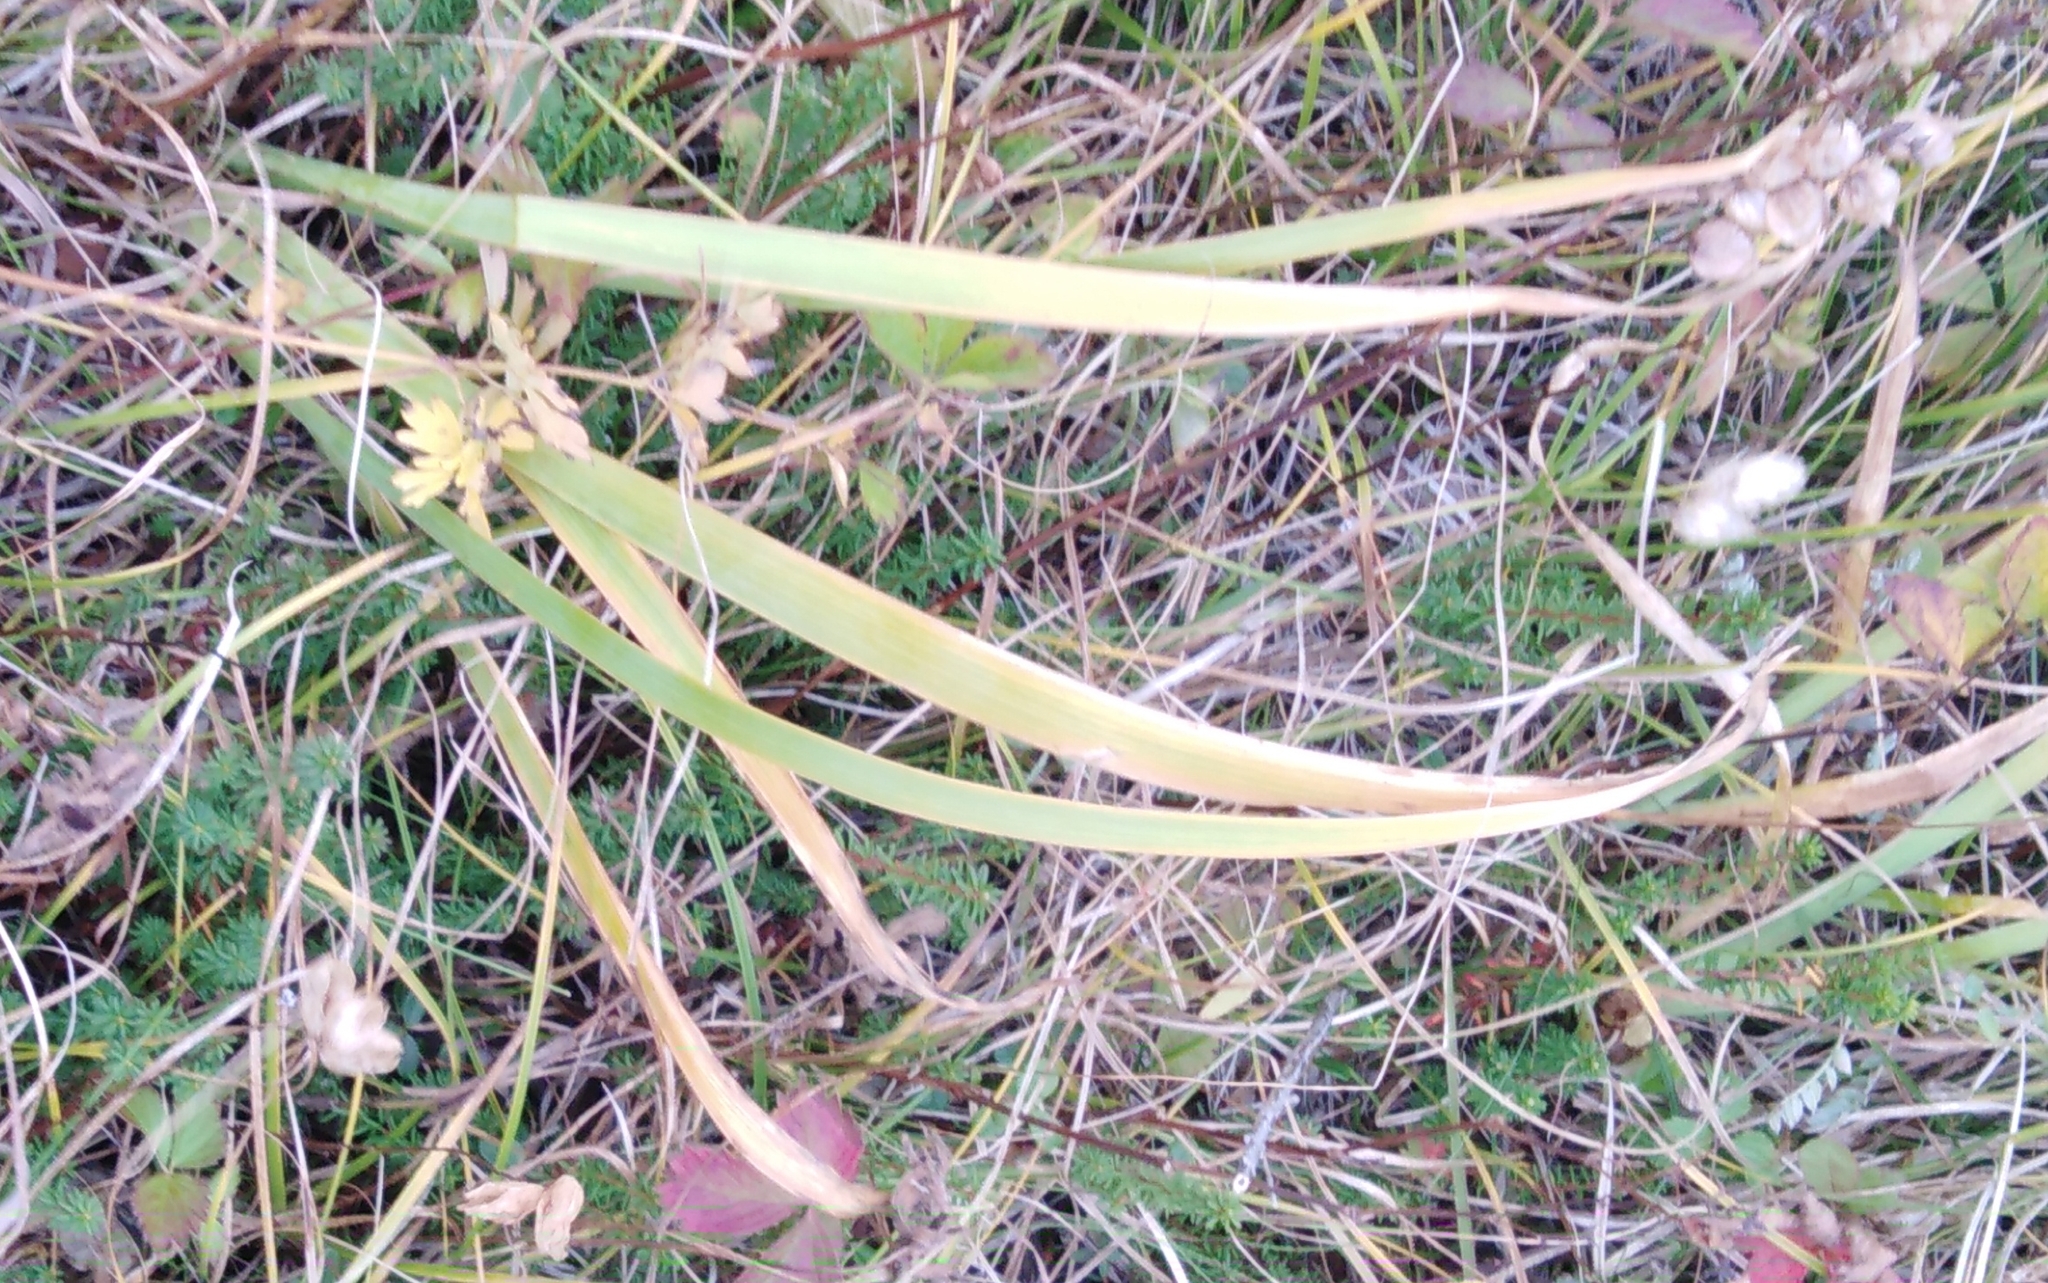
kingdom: Plantae
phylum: Tracheophyta
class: Liliopsida
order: Asparagales
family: Iridaceae
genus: Iris
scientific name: Iris setosa
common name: Arctic blue flag
